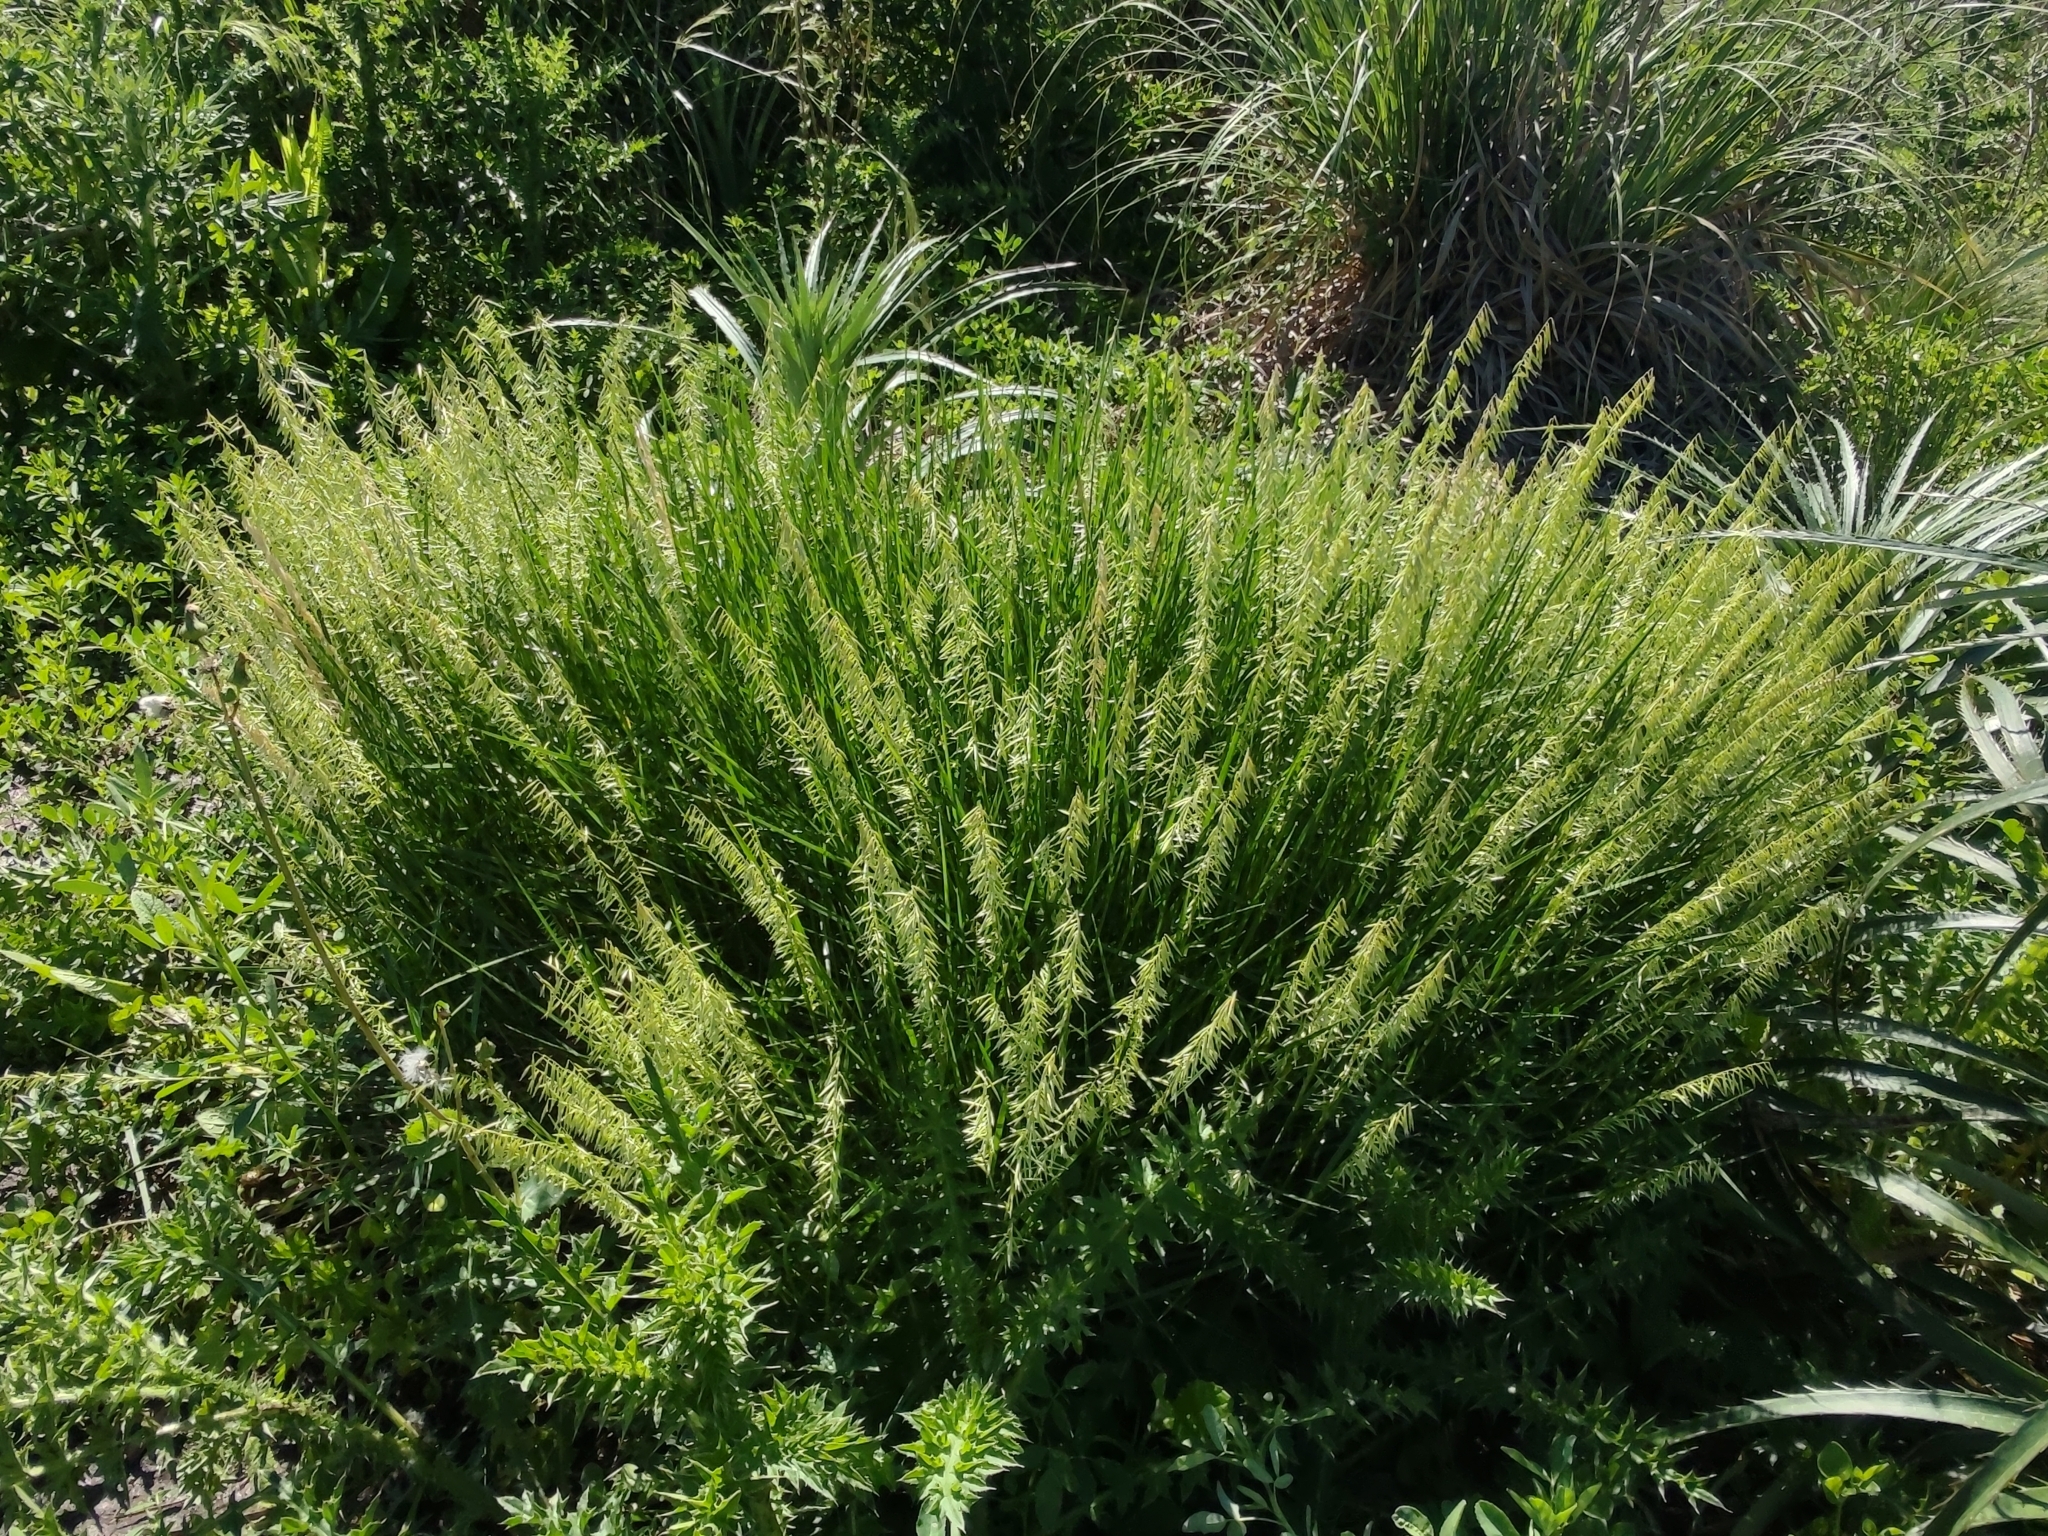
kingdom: Plantae
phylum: Tracheophyta
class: Liliopsida
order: Poales
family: Poaceae
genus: Melica
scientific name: Melica macra
